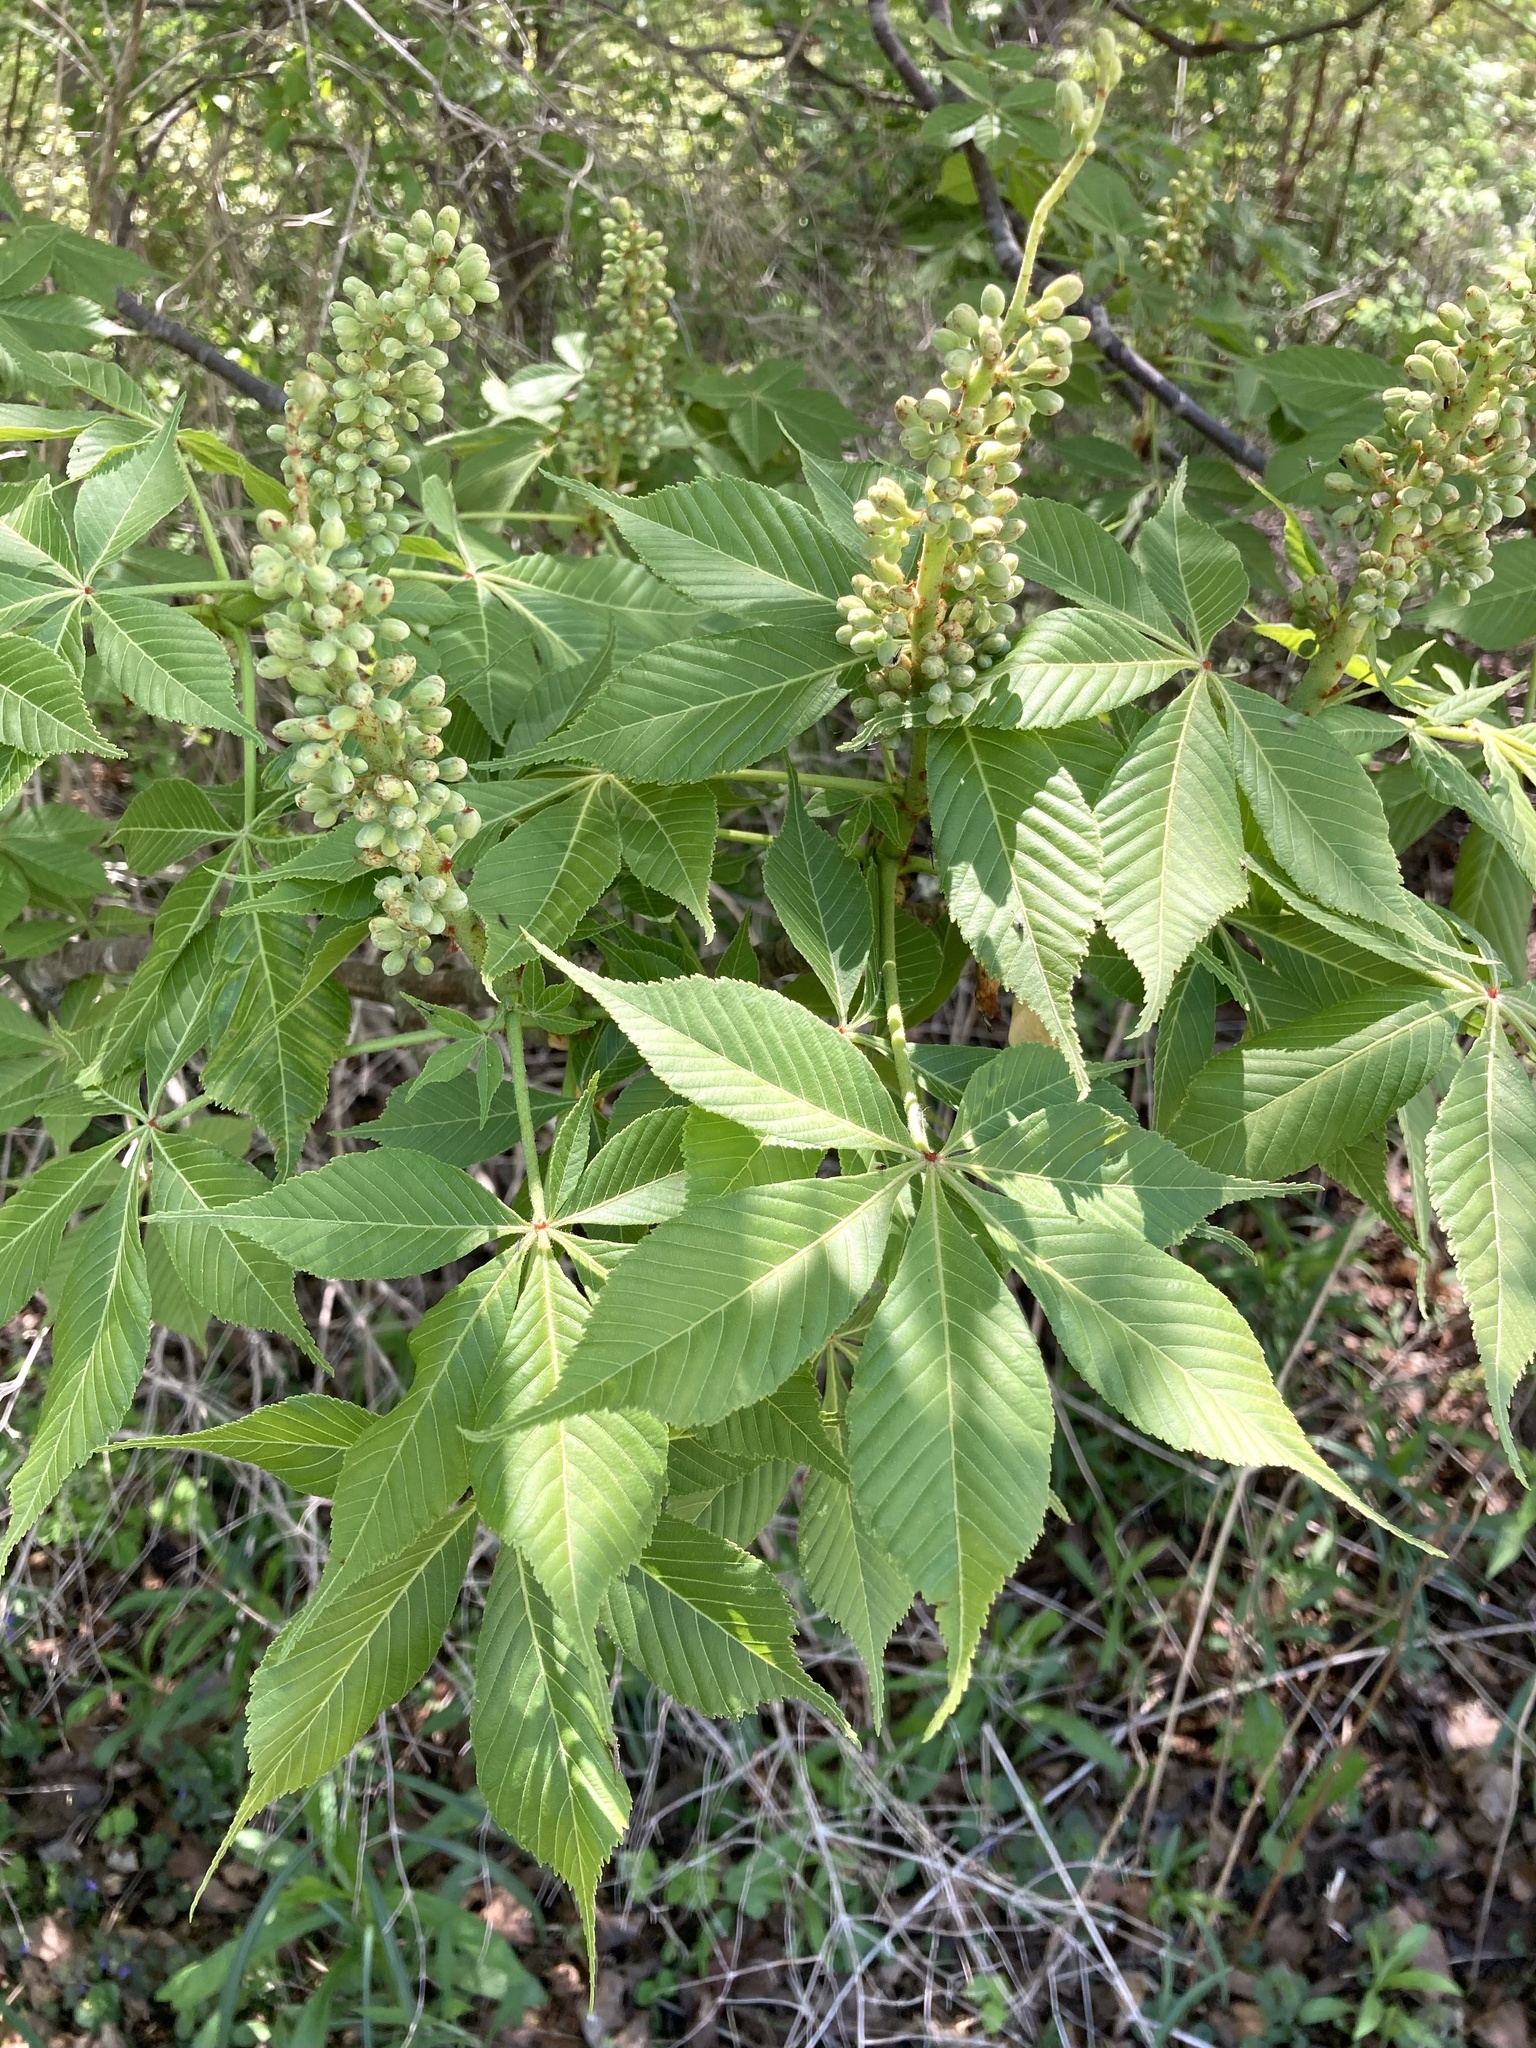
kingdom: Plantae
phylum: Tracheophyta
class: Magnoliopsida
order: Sapindales
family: Sapindaceae
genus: Aesculus
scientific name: Aesculus glabra
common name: Ohio buckeye
